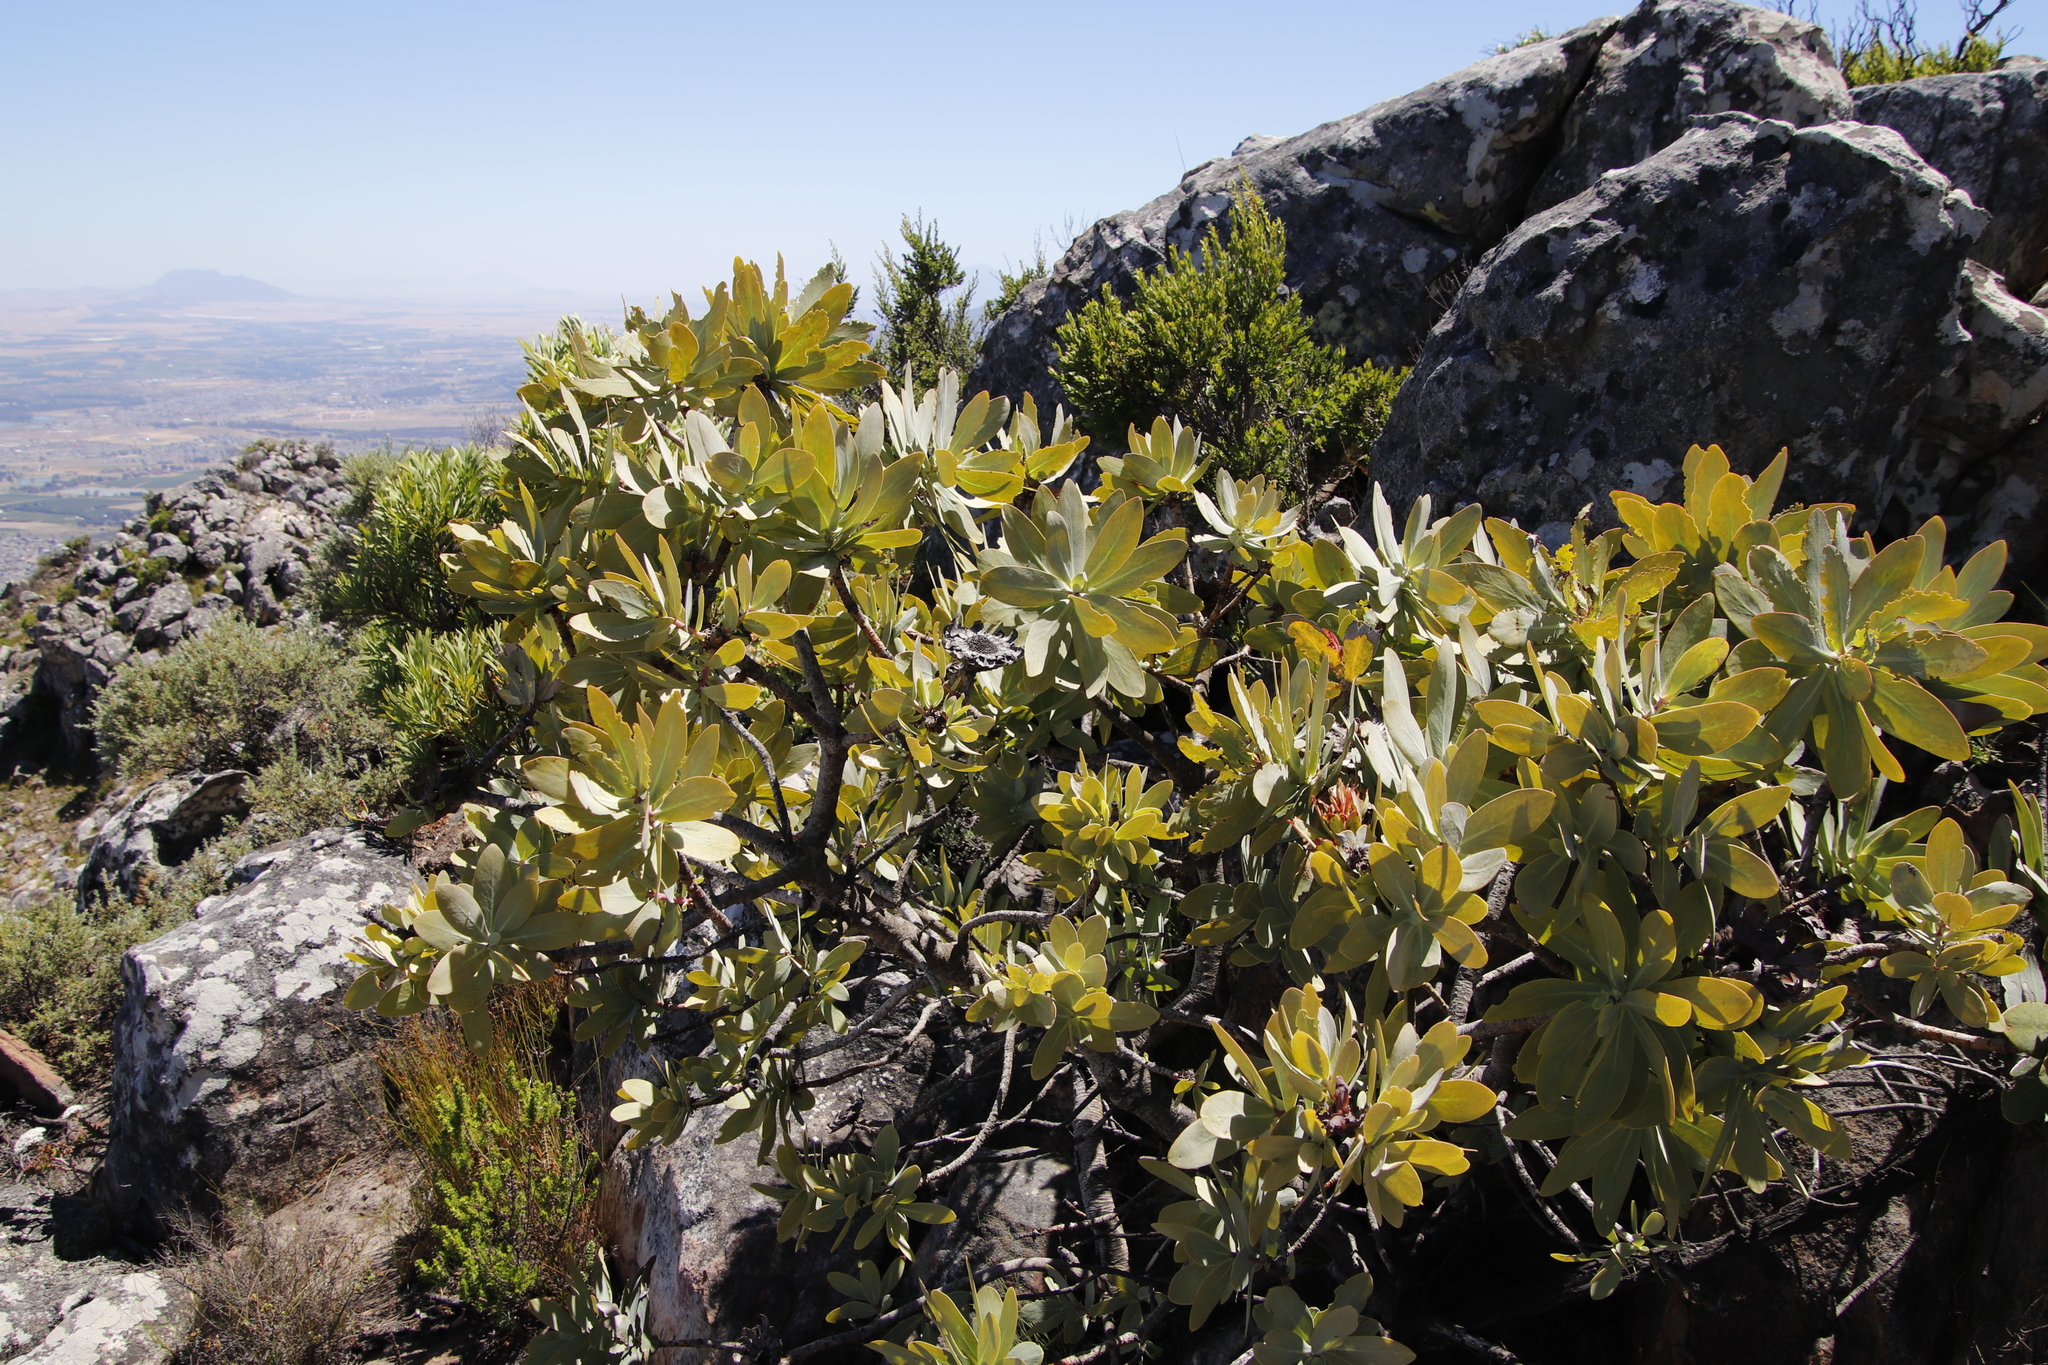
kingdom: Plantae
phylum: Tracheophyta
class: Magnoliopsida
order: Proteales
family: Proteaceae
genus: Protea
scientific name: Protea nitida
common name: Tree protea
